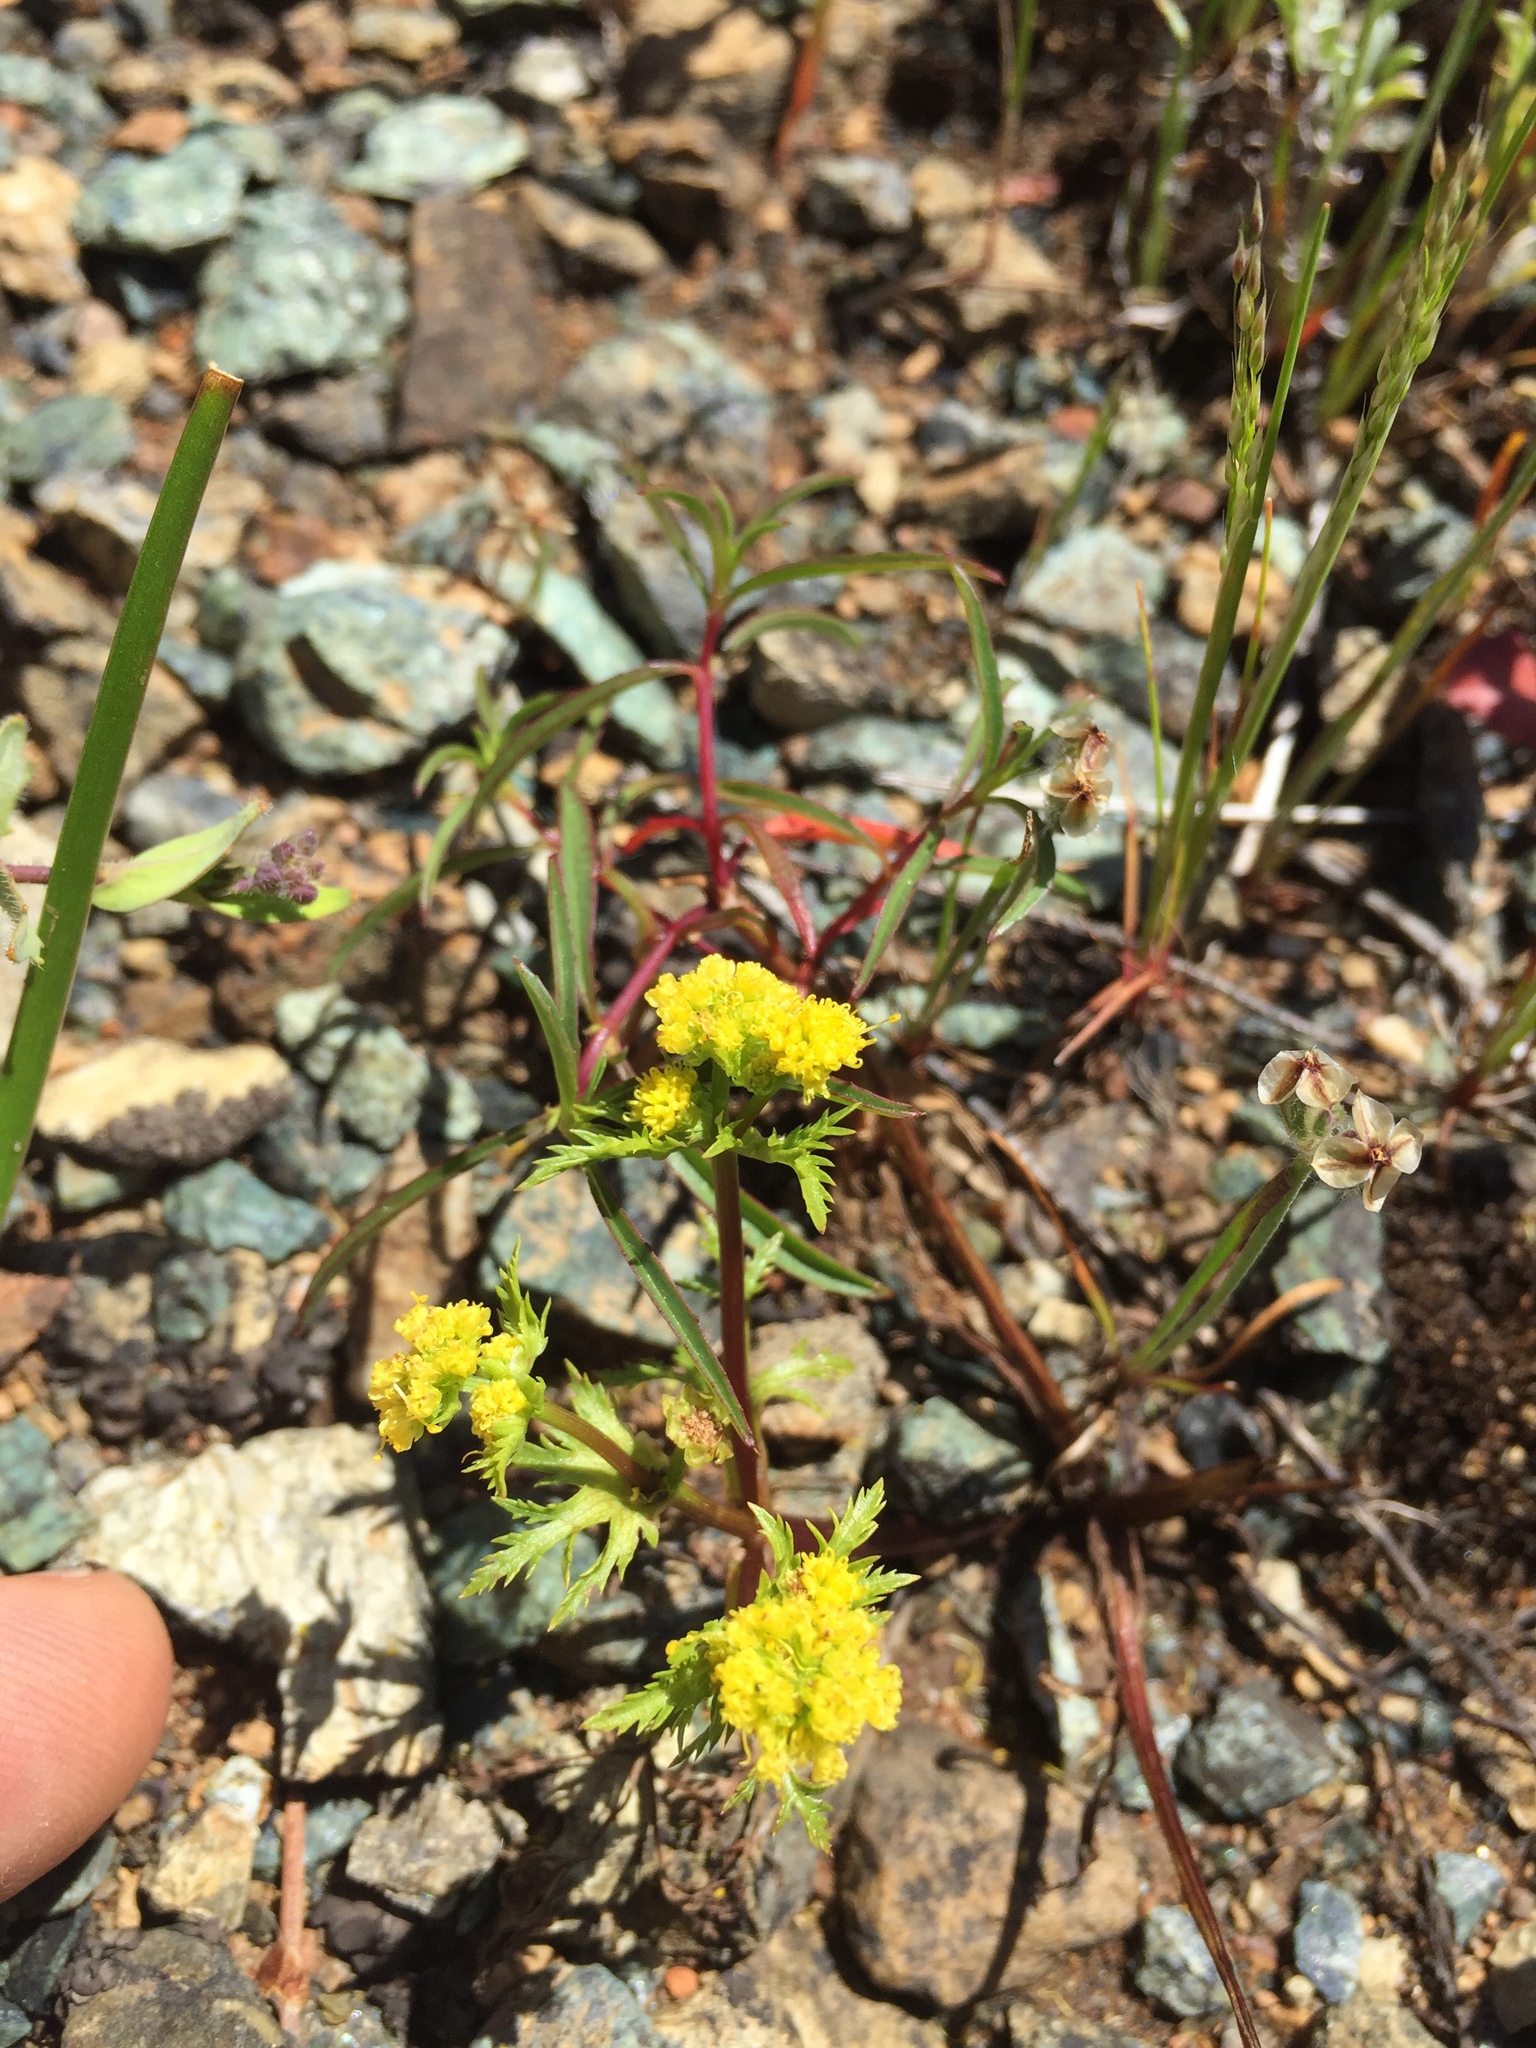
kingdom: Plantae
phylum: Tracheophyta
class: Magnoliopsida
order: Apiales
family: Apiaceae
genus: Sanicula
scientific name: Sanicula tuberosa
